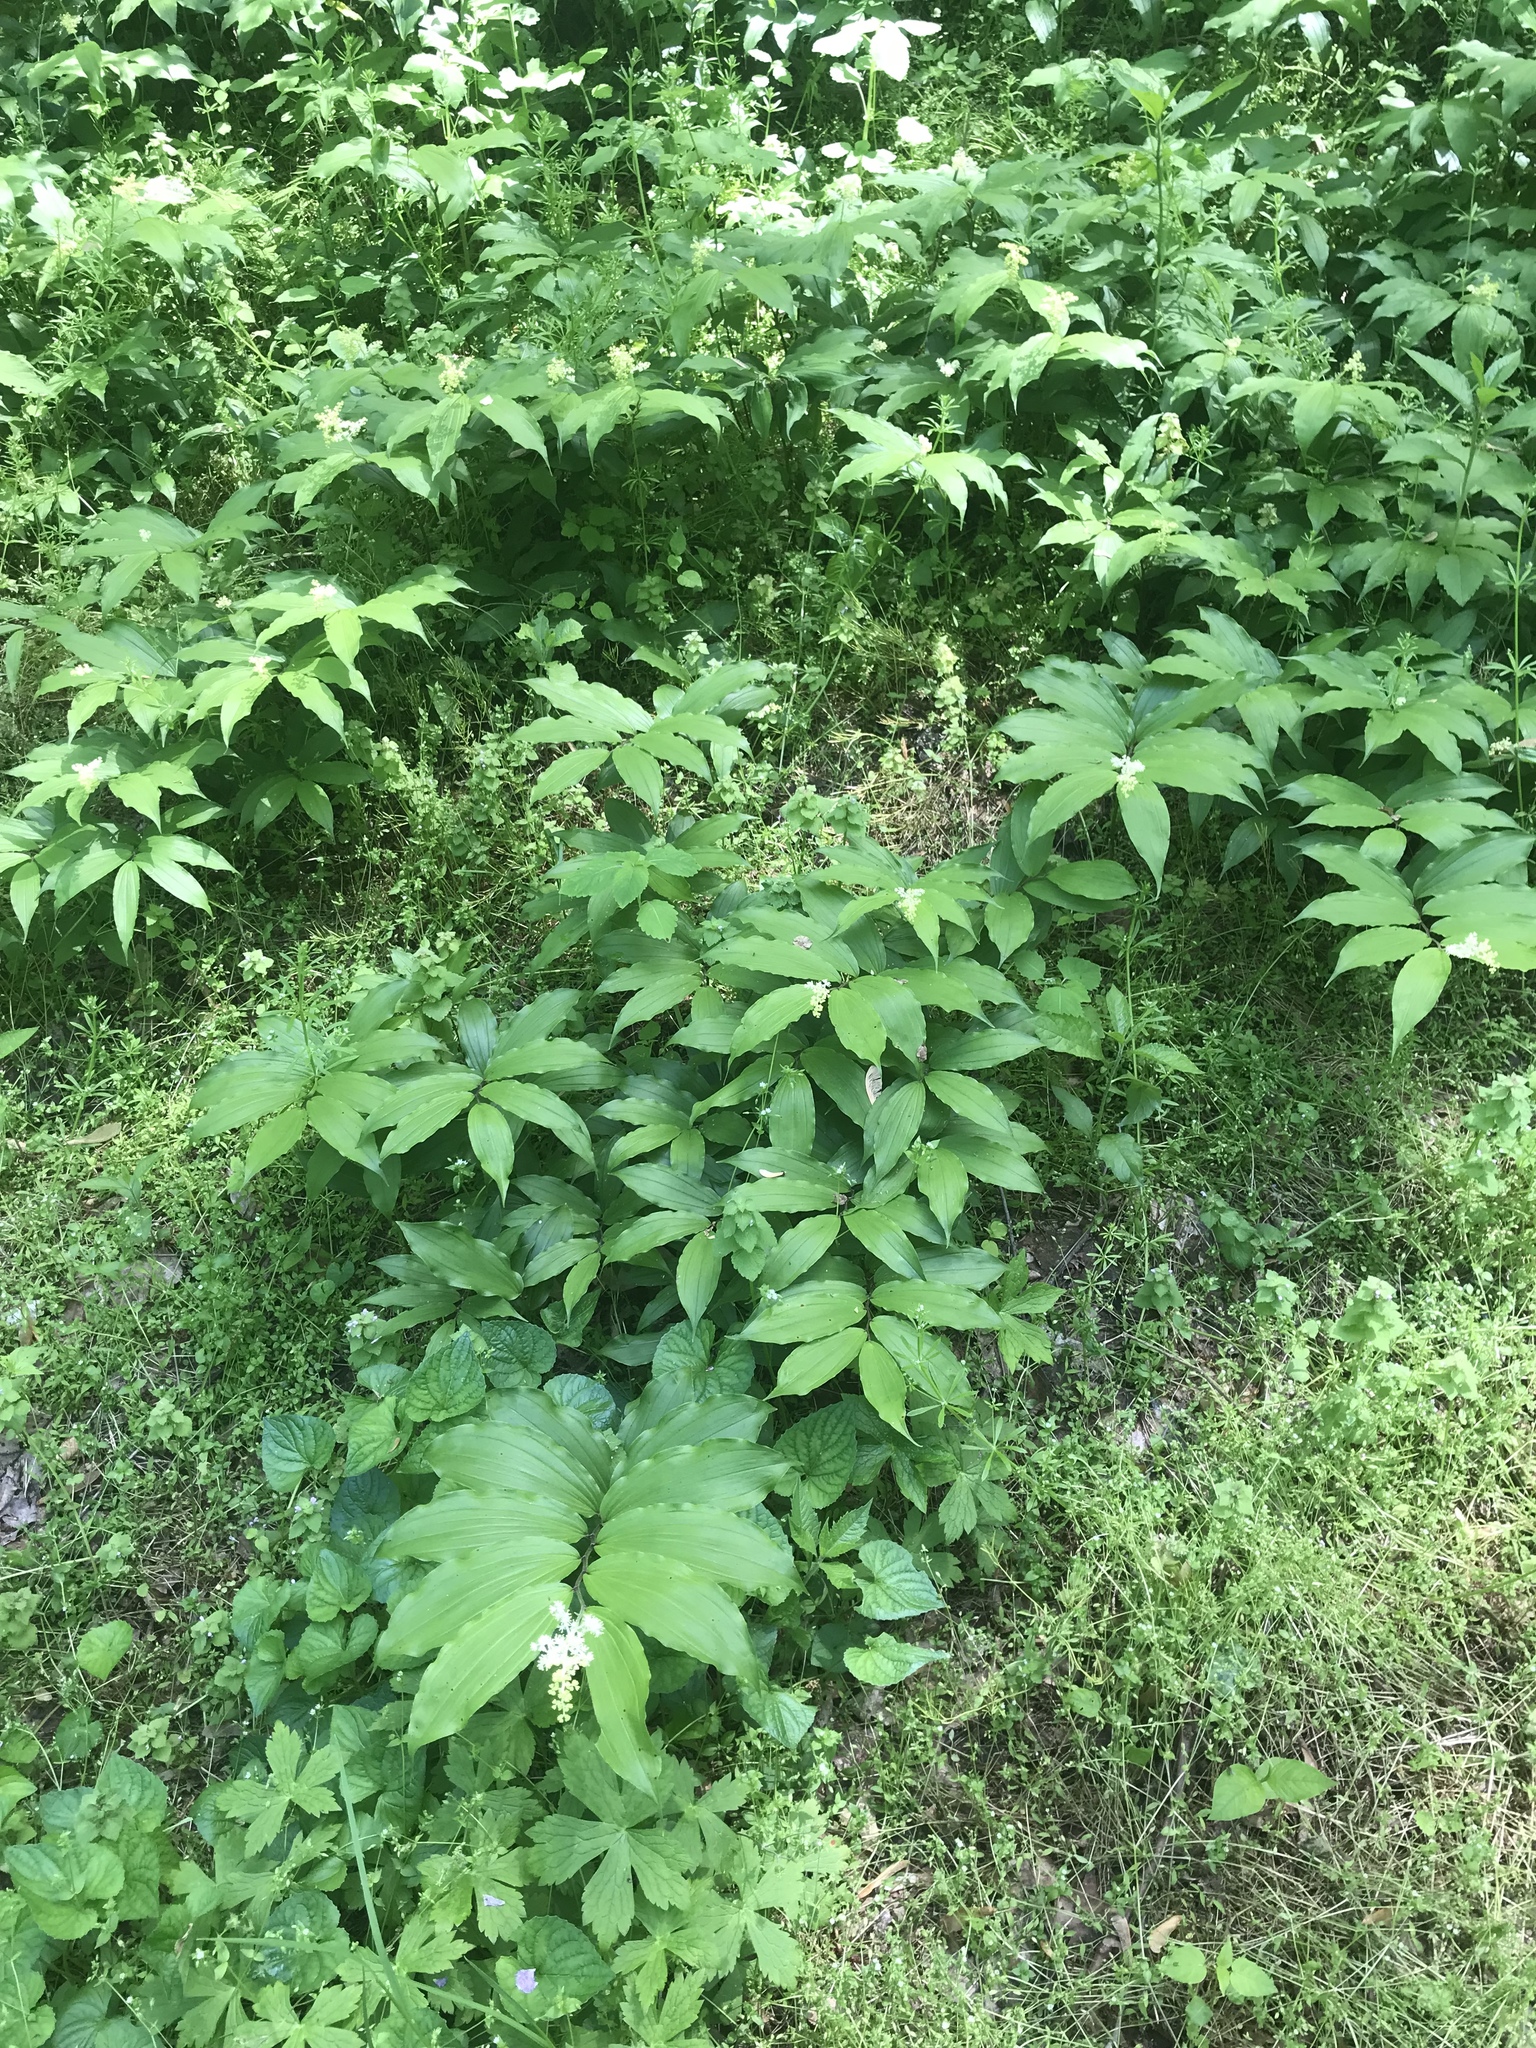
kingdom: Plantae
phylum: Tracheophyta
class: Liliopsida
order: Asparagales
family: Asparagaceae
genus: Maianthemum
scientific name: Maianthemum racemosum
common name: False spikenard
